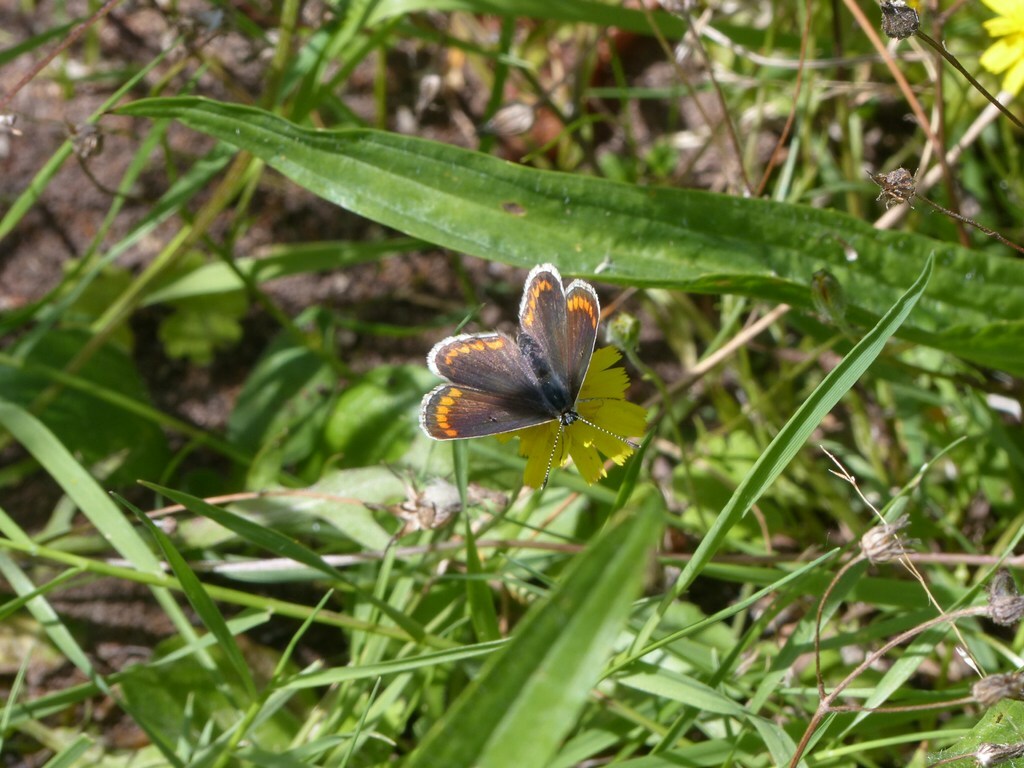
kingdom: Animalia
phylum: Arthropoda
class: Insecta
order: Lepidoptera
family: Lycaenidae
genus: Aricia
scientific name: Aricia agestis
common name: Brown argus
